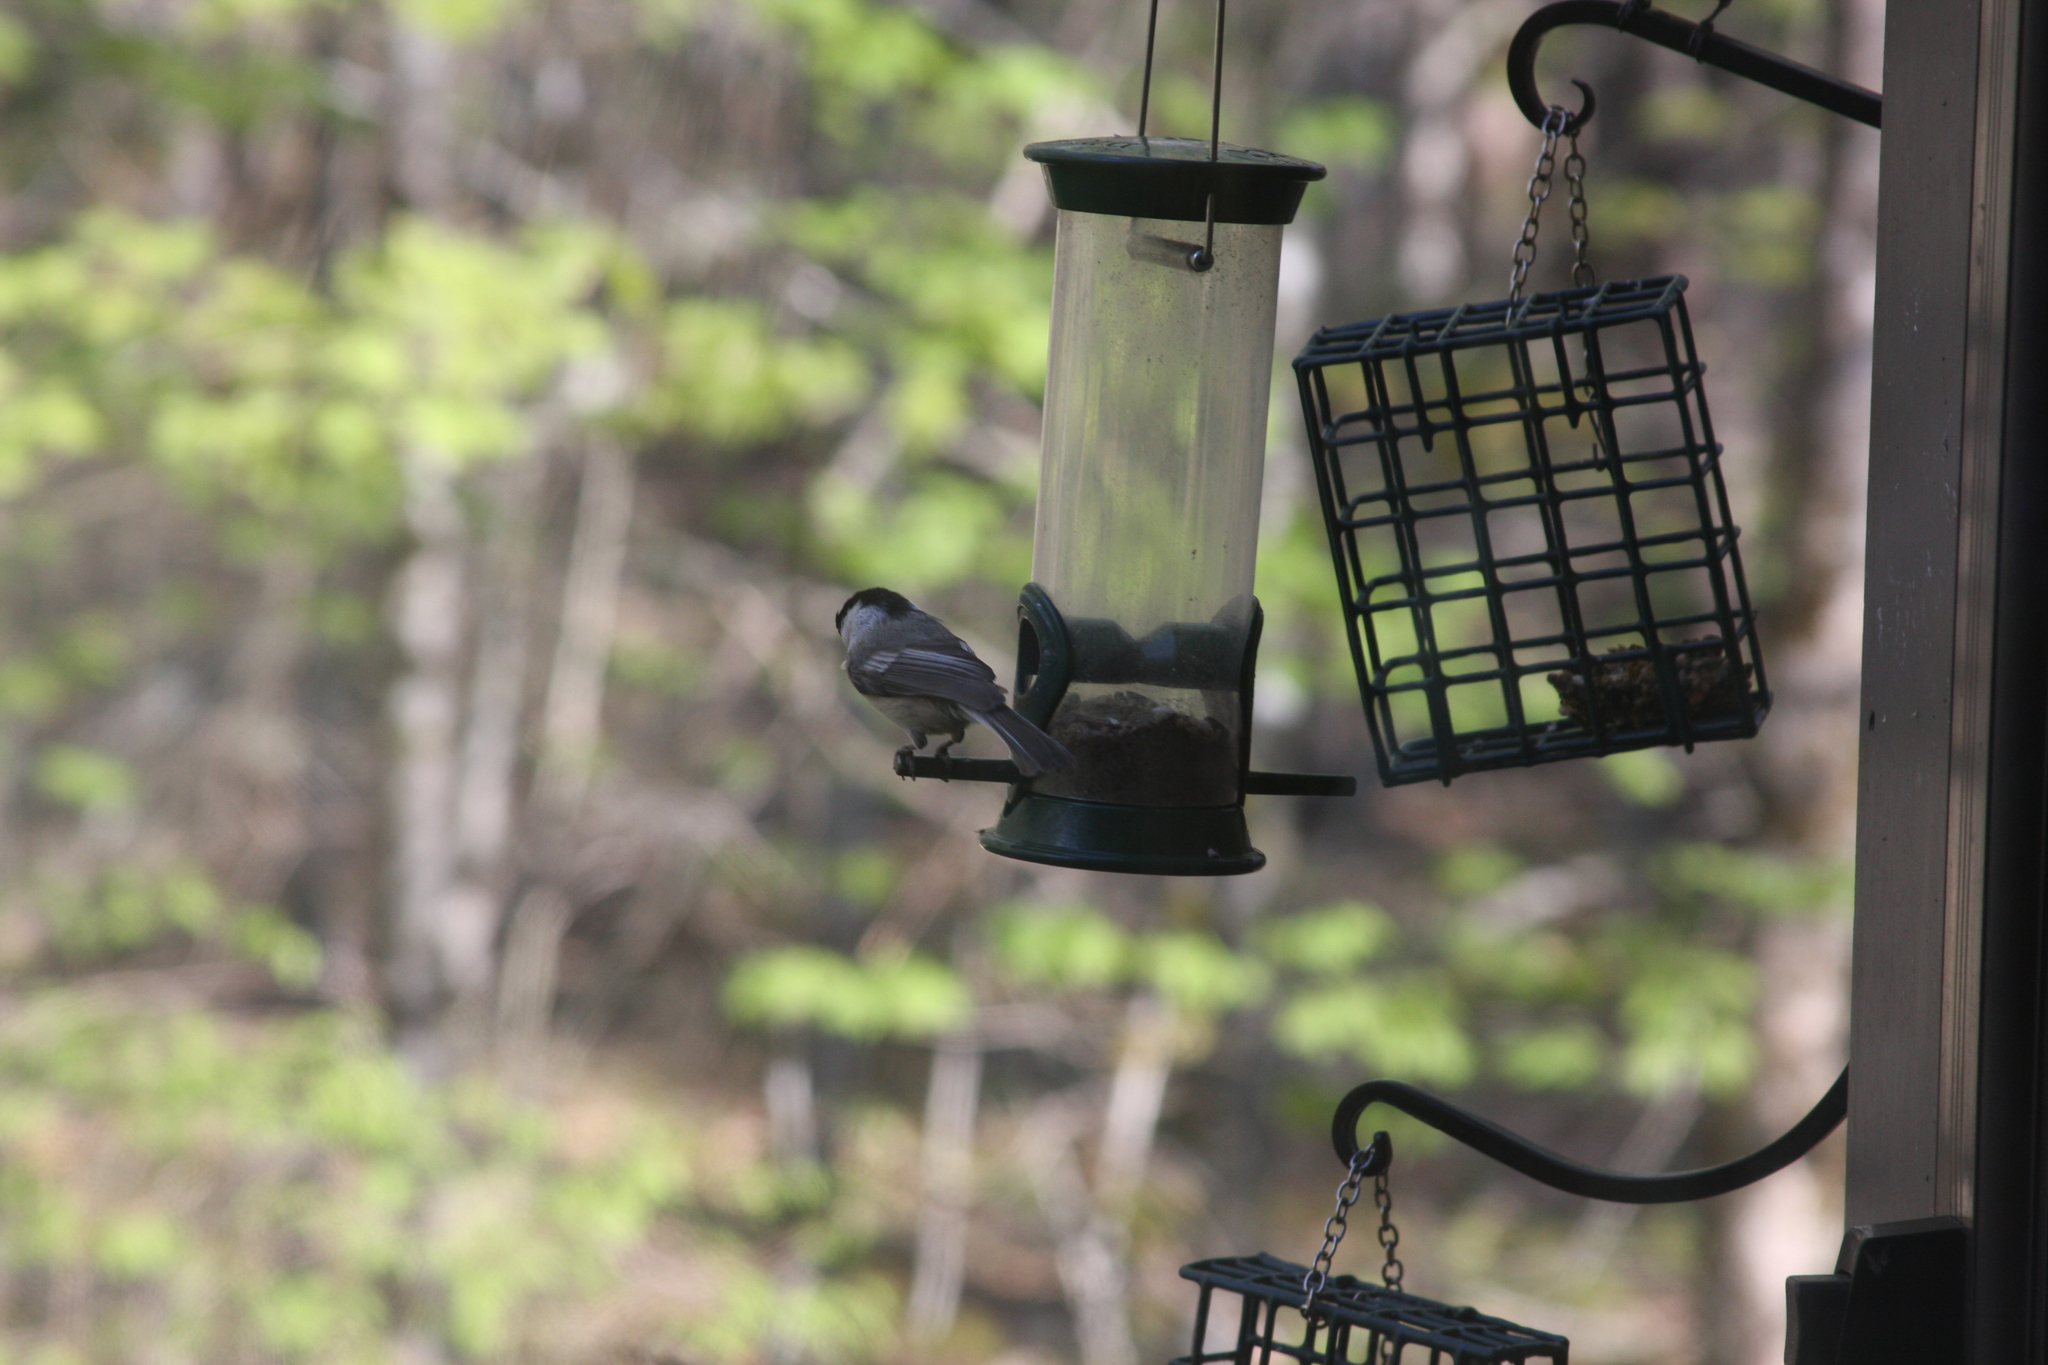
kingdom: Animalia
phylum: Chordata
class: Aves
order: Passeriformes
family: Paridae
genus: Poecile
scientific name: Poecile atricapillus
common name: Black-capped chickadee
